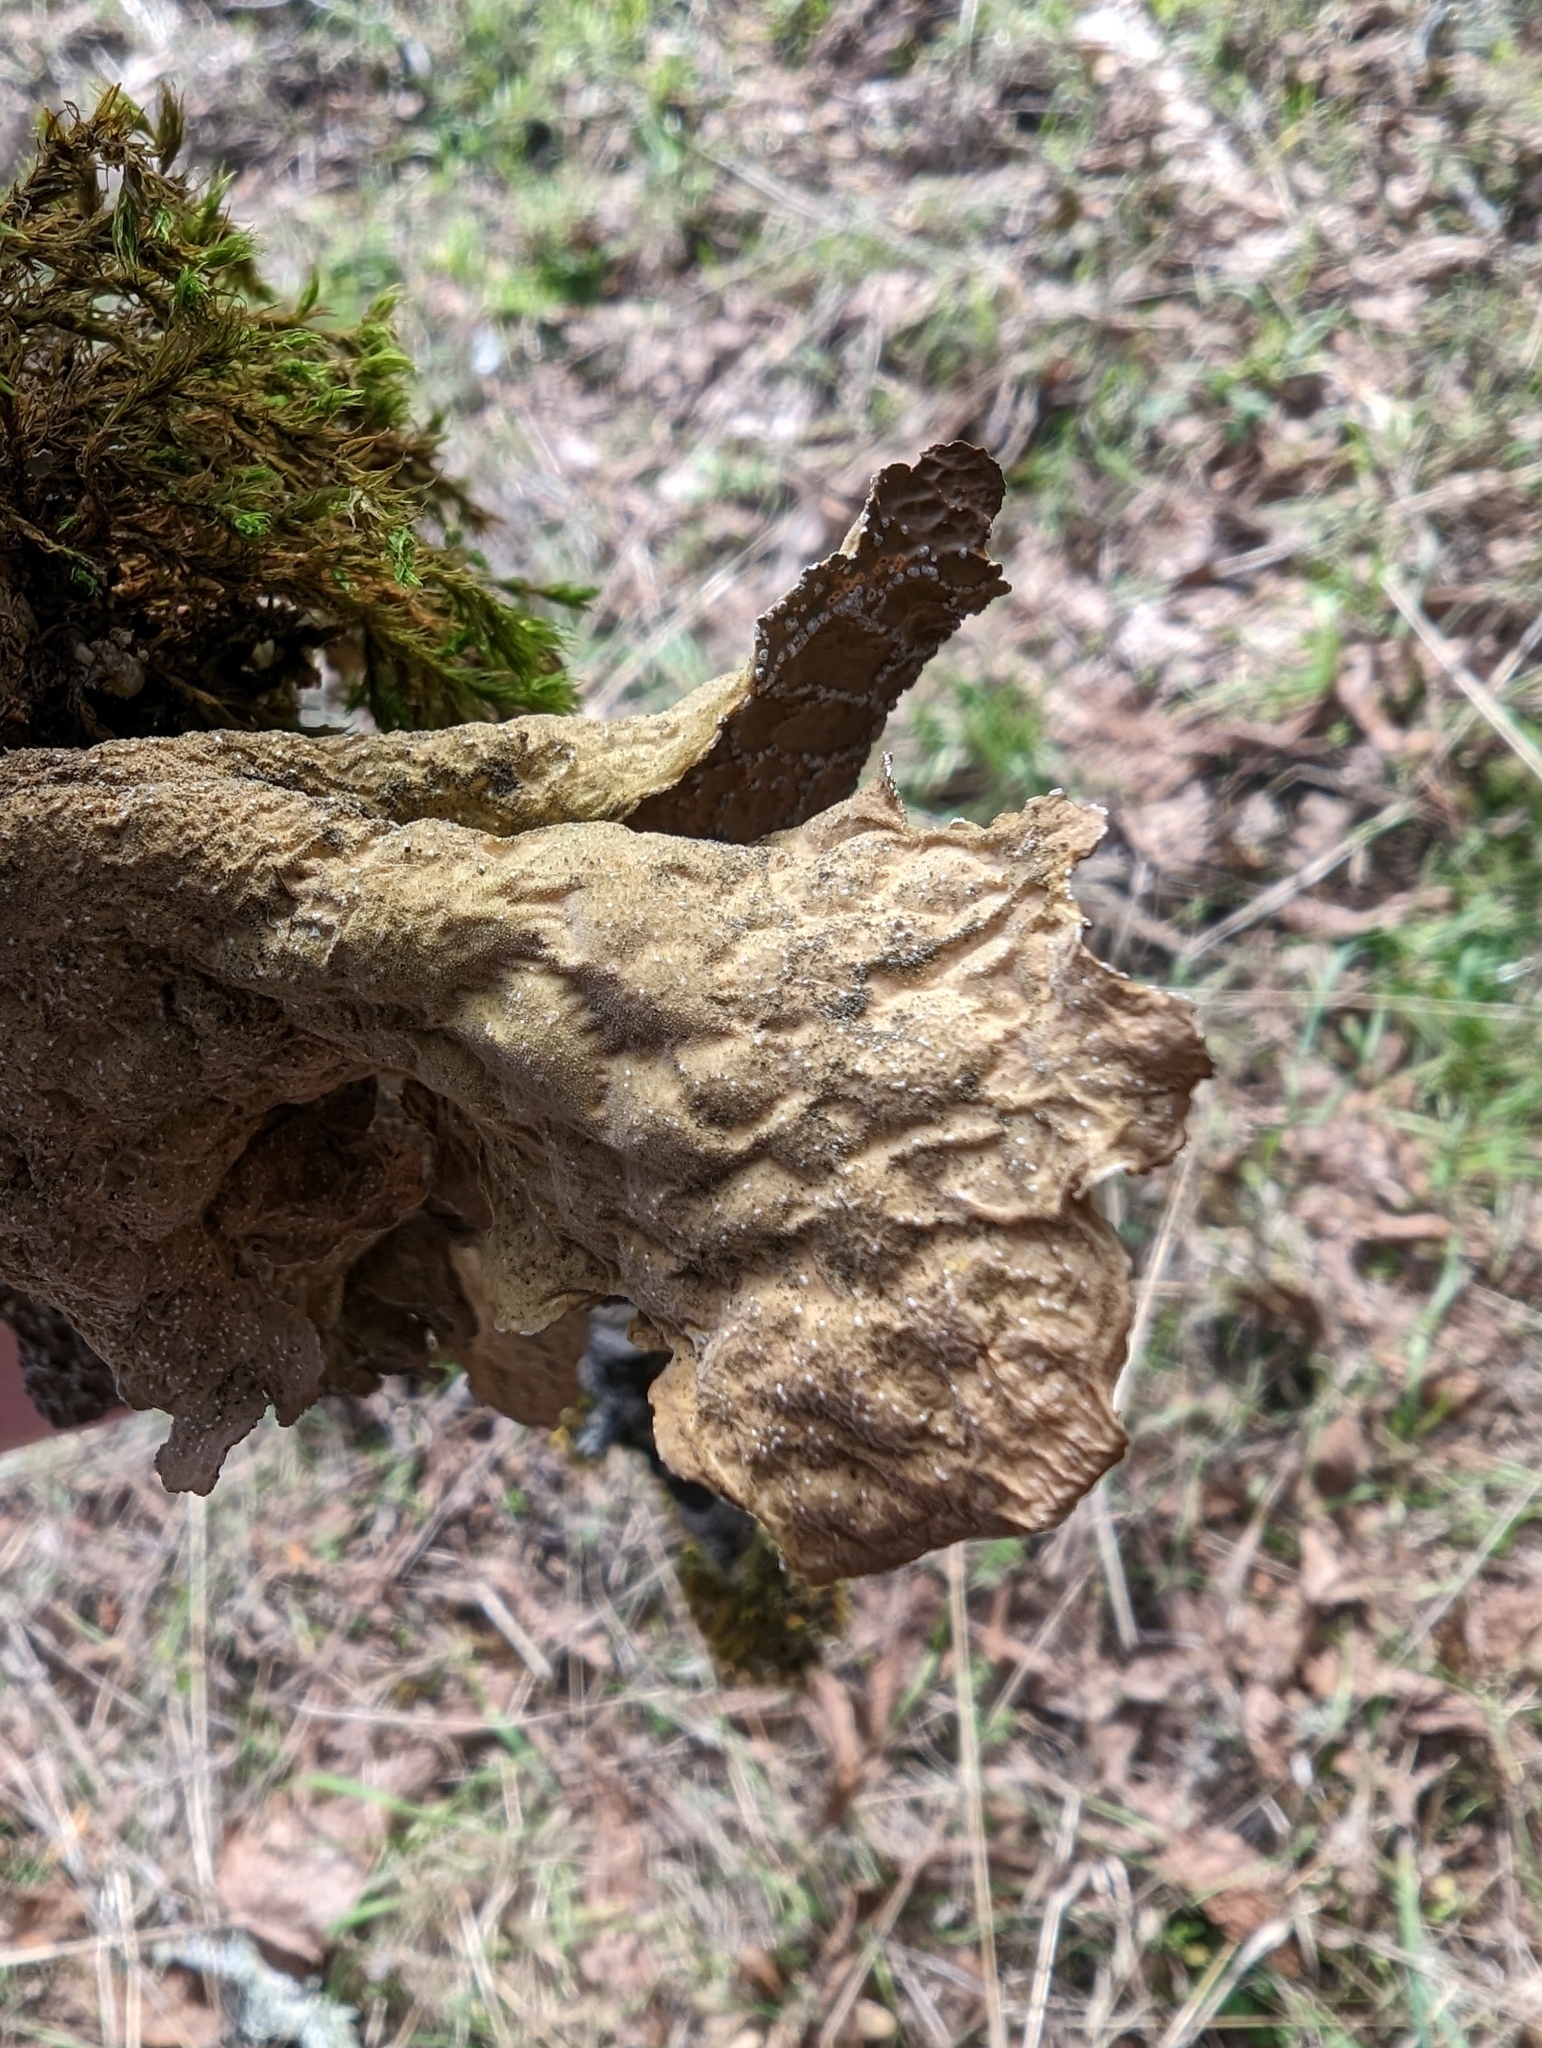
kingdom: Fungi
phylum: Ascomycota
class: Lecanoromycetes
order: Peltigerales
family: Lobariaceae
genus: Lobaria
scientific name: Lobaria anomala
